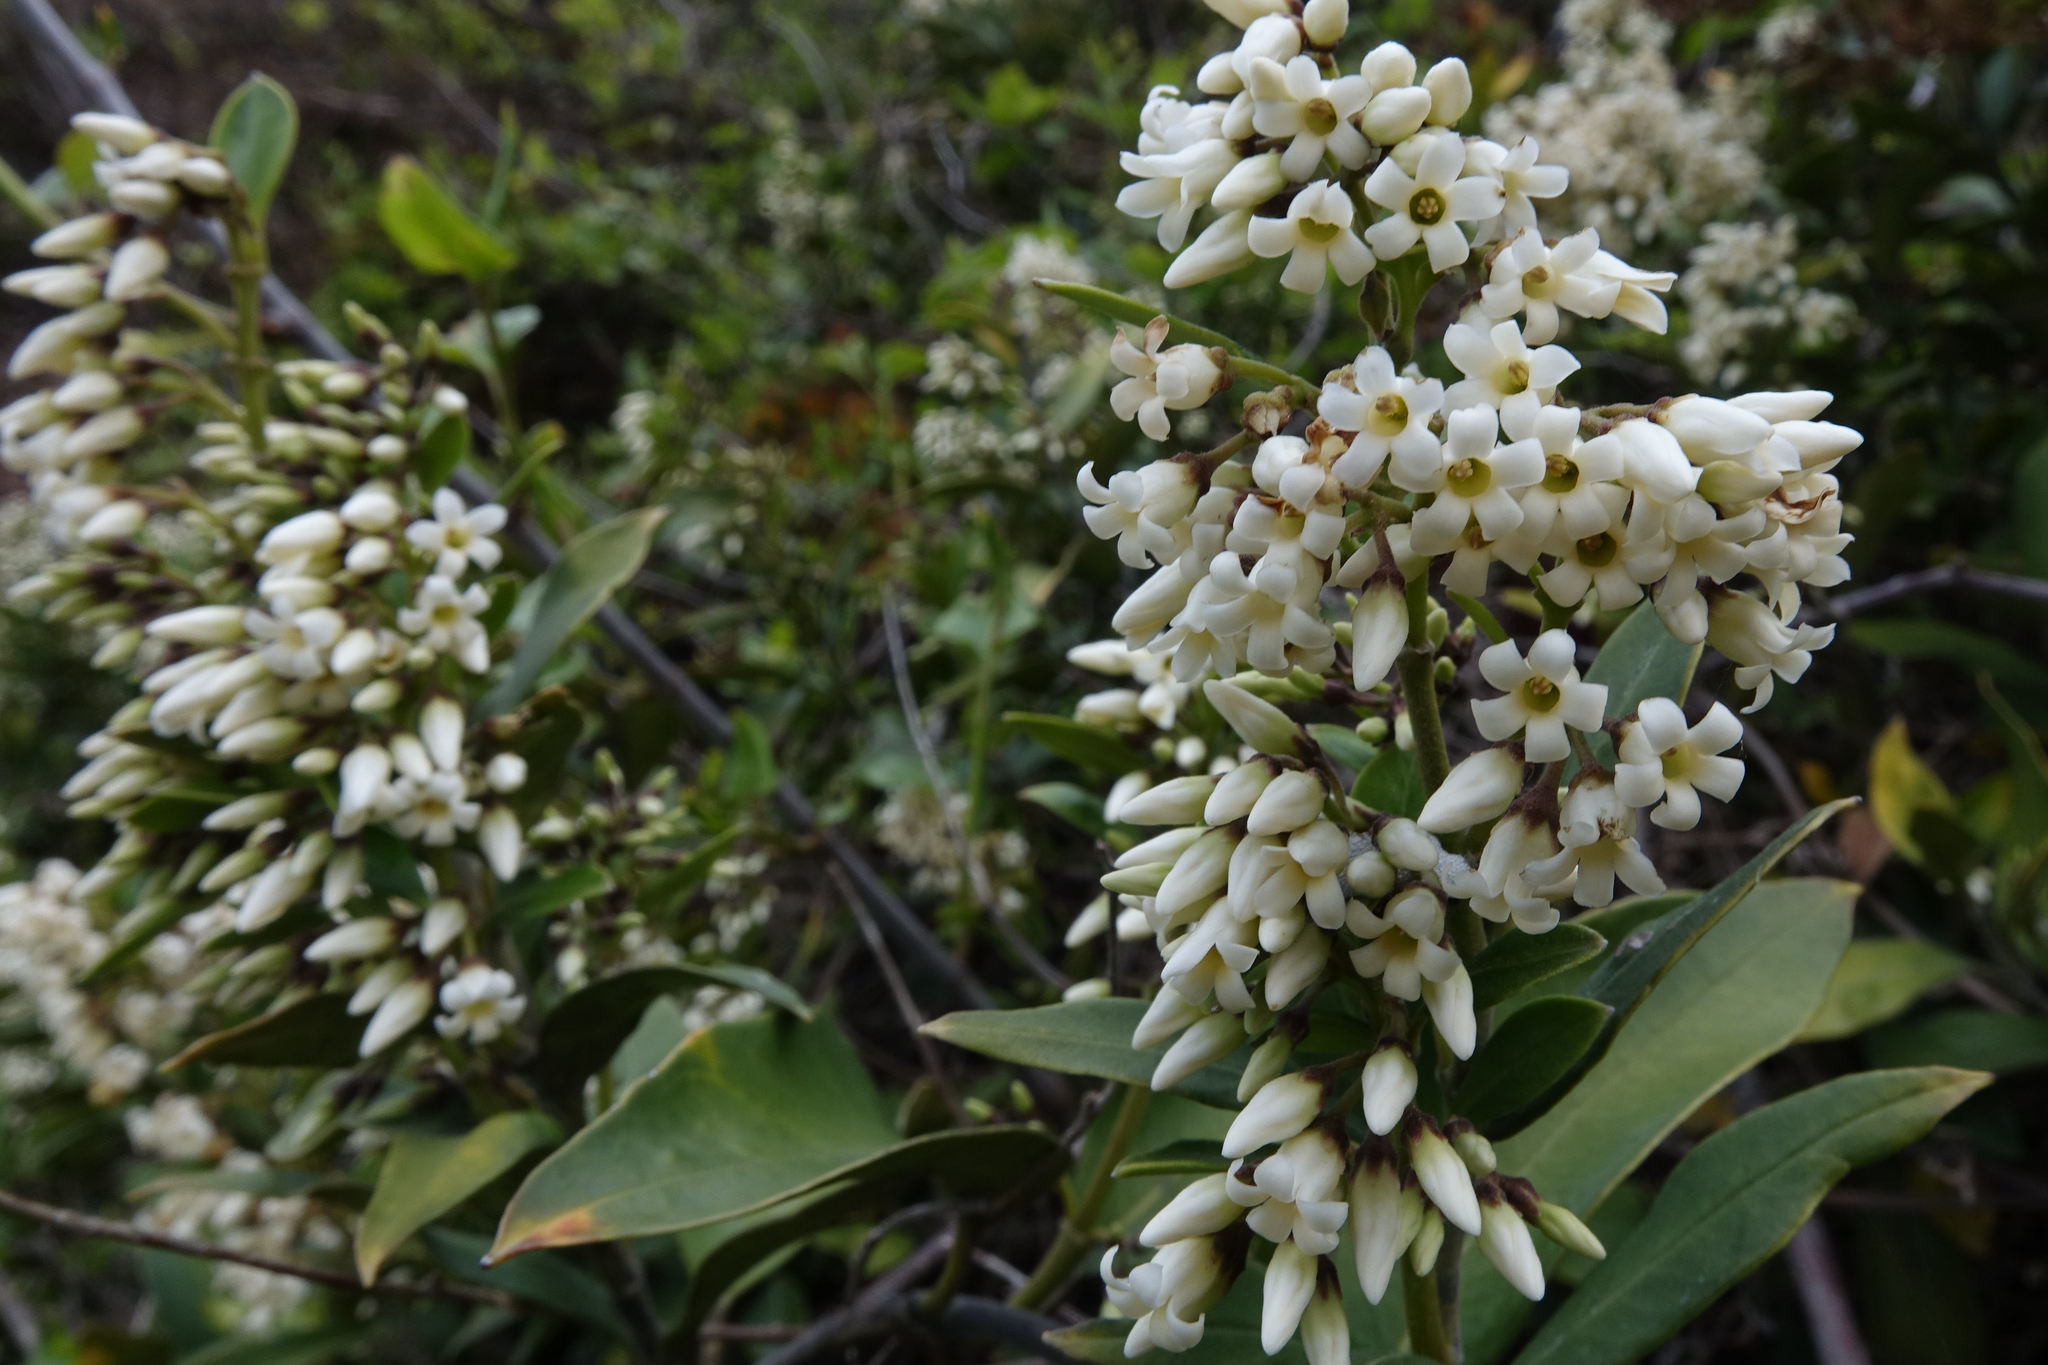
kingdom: Plantae
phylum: Tracheophyta
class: Magnoliopsida
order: Gentianales
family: Apocynaceae
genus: Parsonsia
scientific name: Parsonsia heterophylla
